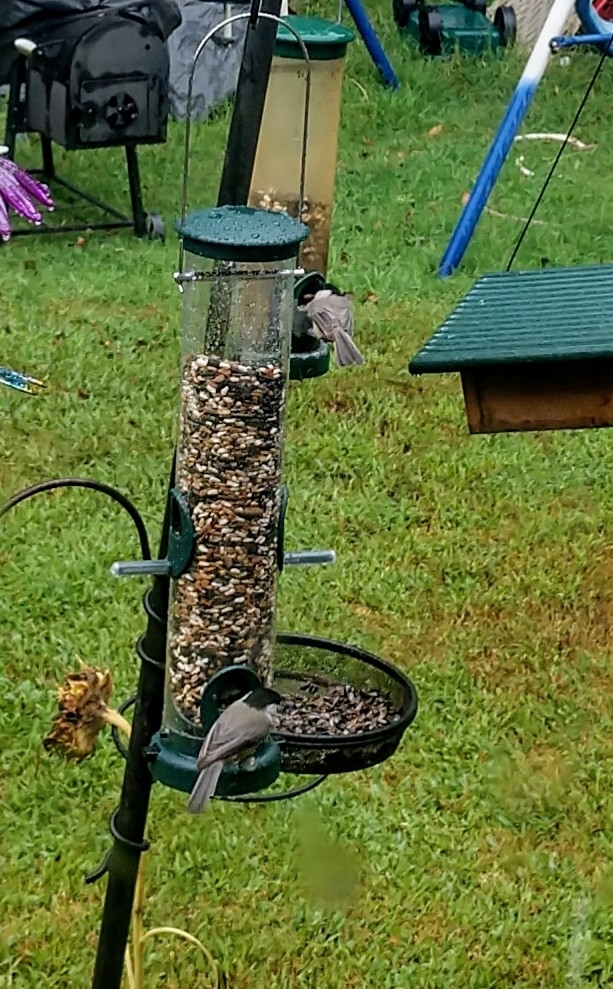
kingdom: Animalia
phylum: Chordata
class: Aves
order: Passeriformes
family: Paridae
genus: Poecile
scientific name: Poecile carolinensis
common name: Carolina chickadee
